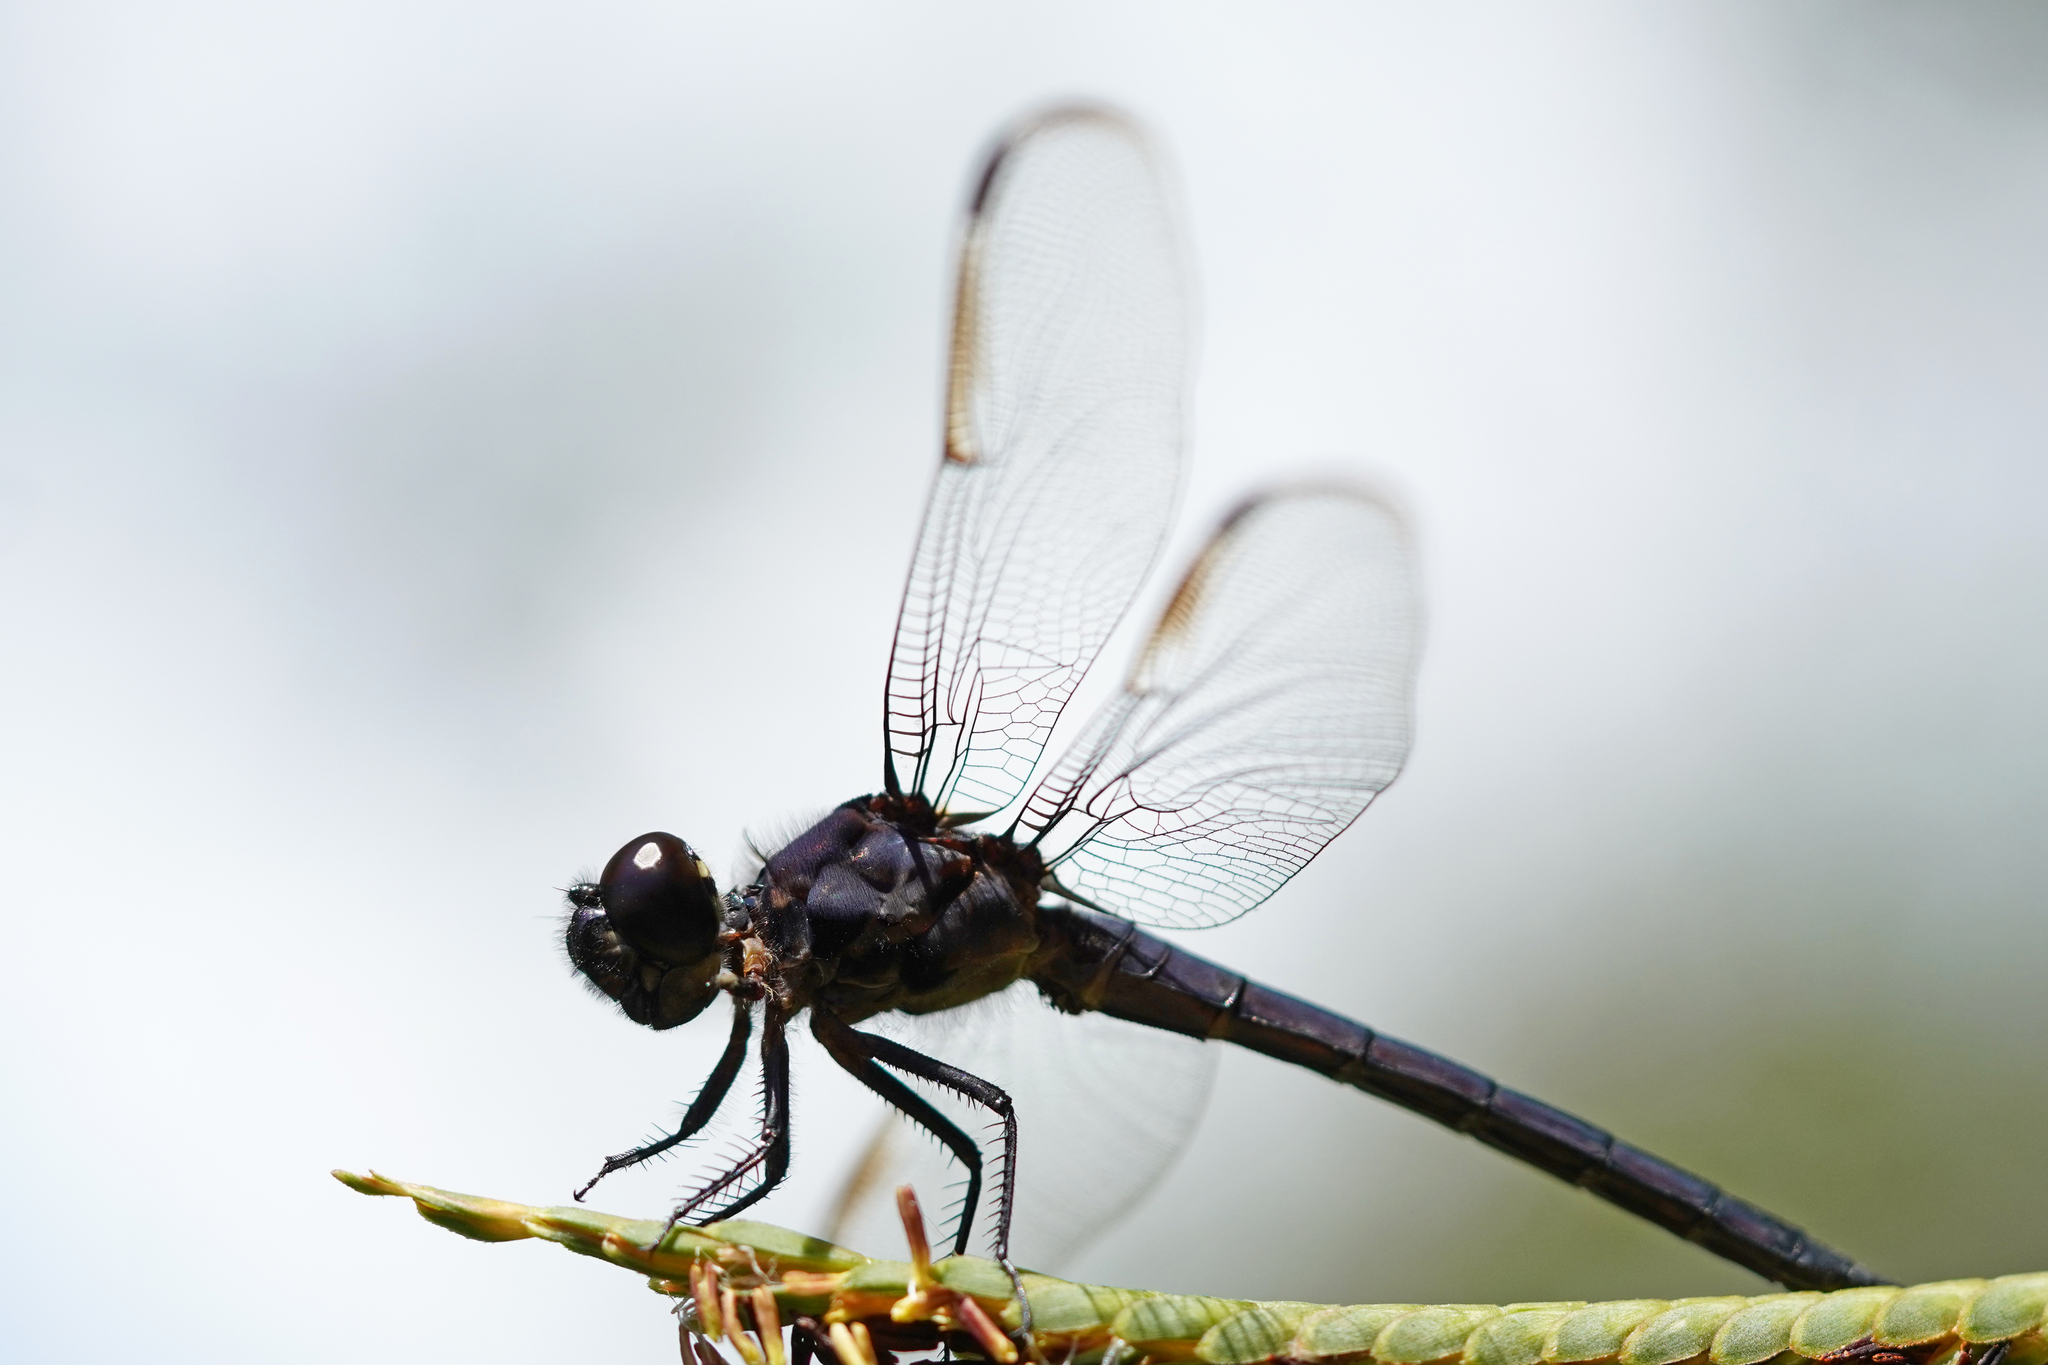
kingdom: Animalia
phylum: Arthropoda
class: Insecta
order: Odonata
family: Libellulidae
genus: Libellula
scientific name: Libellula incesta
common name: Slaty skimmer
